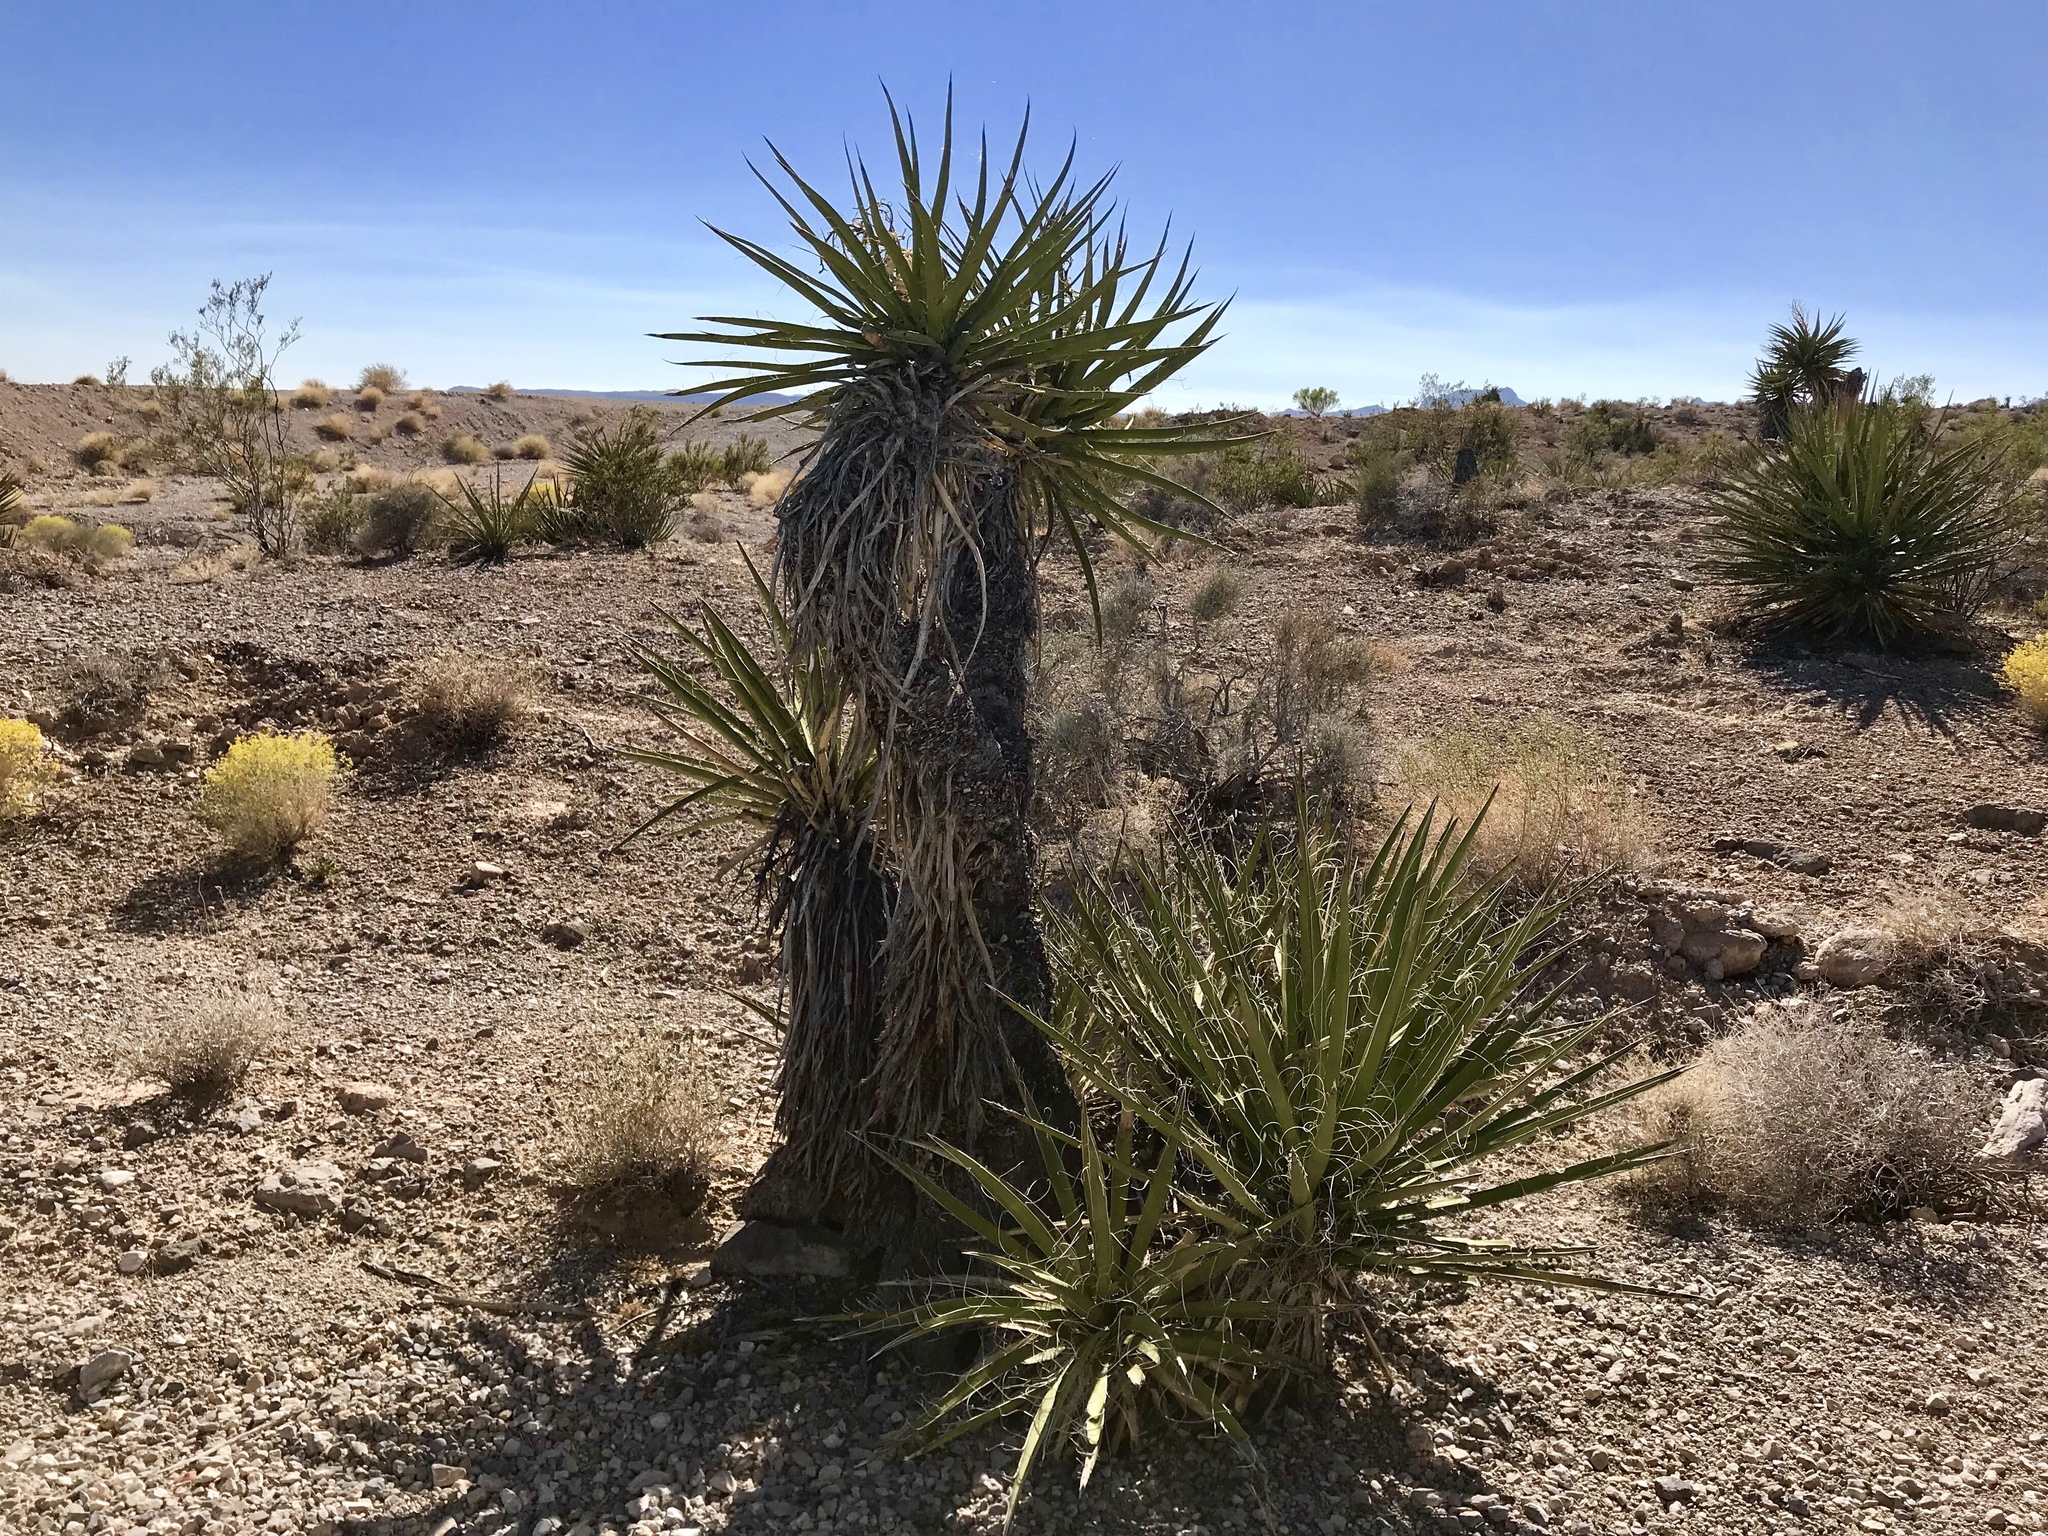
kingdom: Plantae
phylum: Tracheophyta
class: Liliopsida
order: Asparagales
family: Asparagaceae
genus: Yucca
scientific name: Yucca schidigera
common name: Mojave yucca
